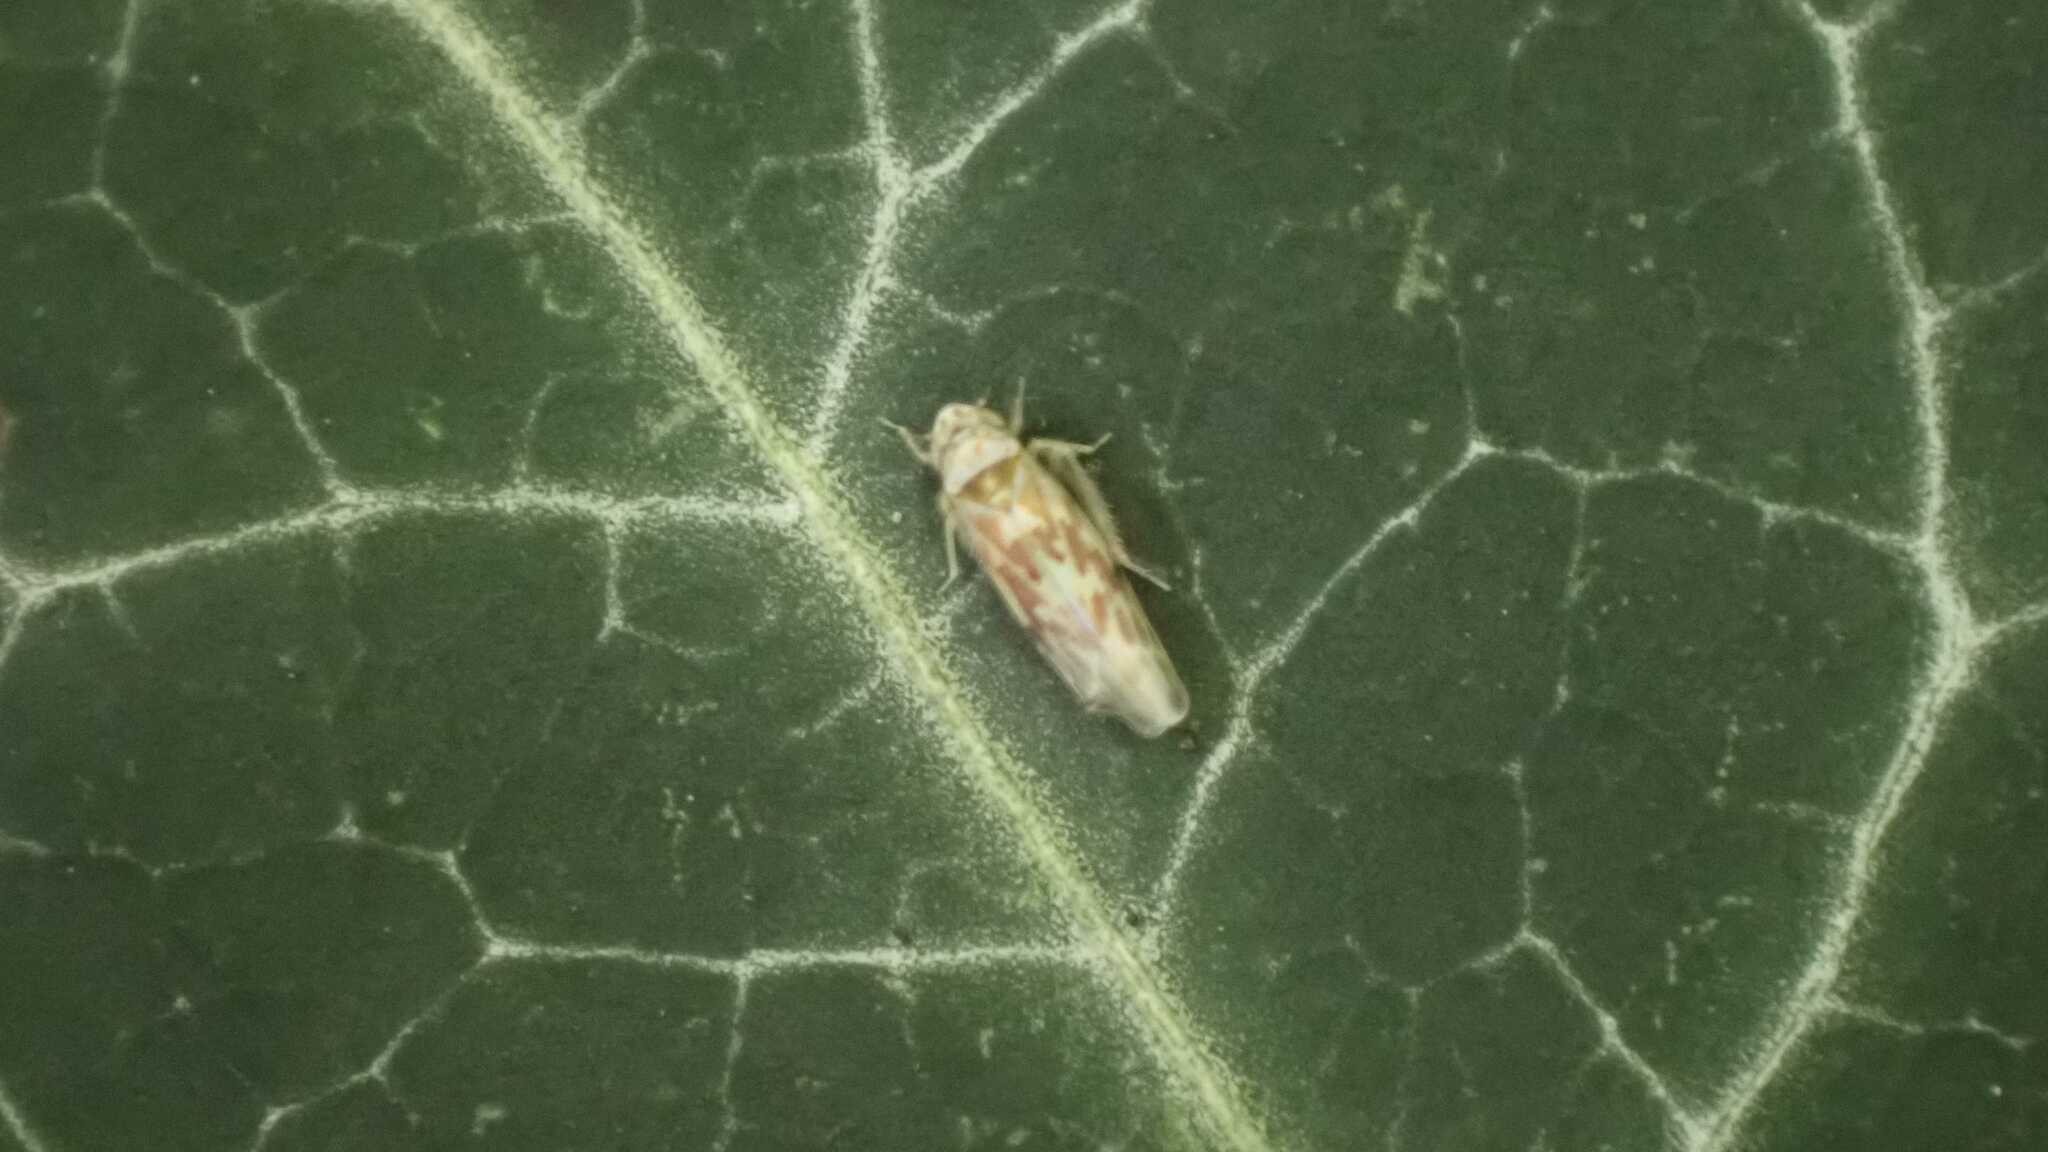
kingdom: Animalia
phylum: Arthropoda
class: Insecta
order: Hemiptera
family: Cicadellidae
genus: Tautoneura
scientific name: Tautoneura polymitusa
